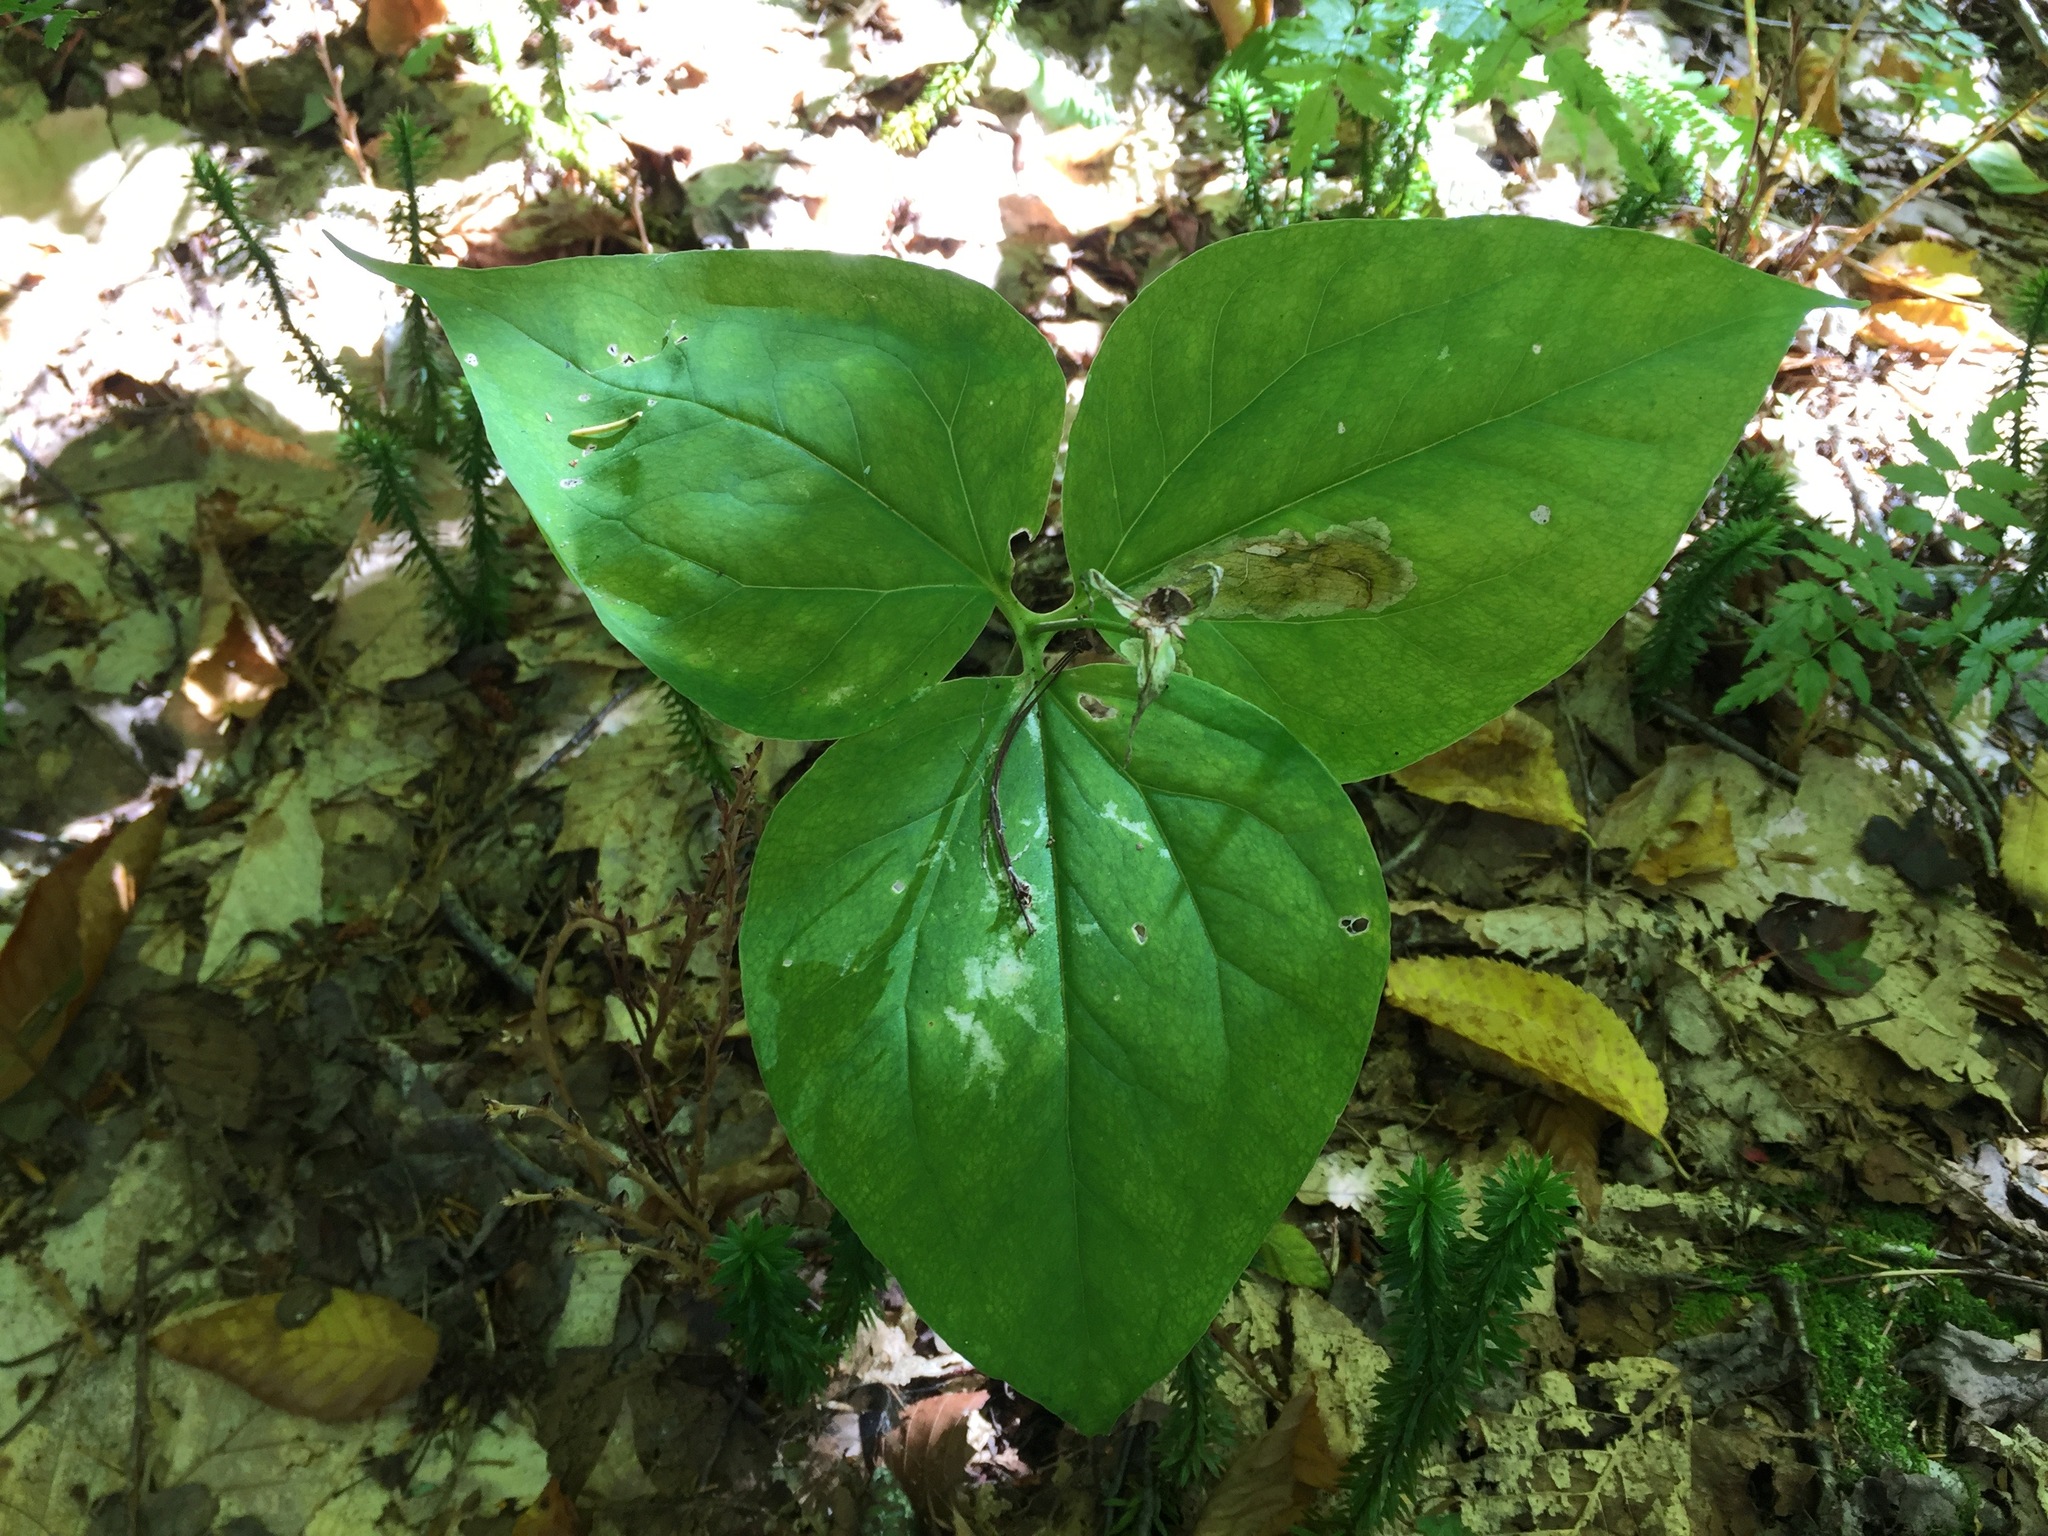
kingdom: Plantae
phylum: Tracheophyta
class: Liliopsida
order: Liliales
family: Melanthiaceae
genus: Trillium
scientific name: Trillium undulatum
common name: Paint trillium
